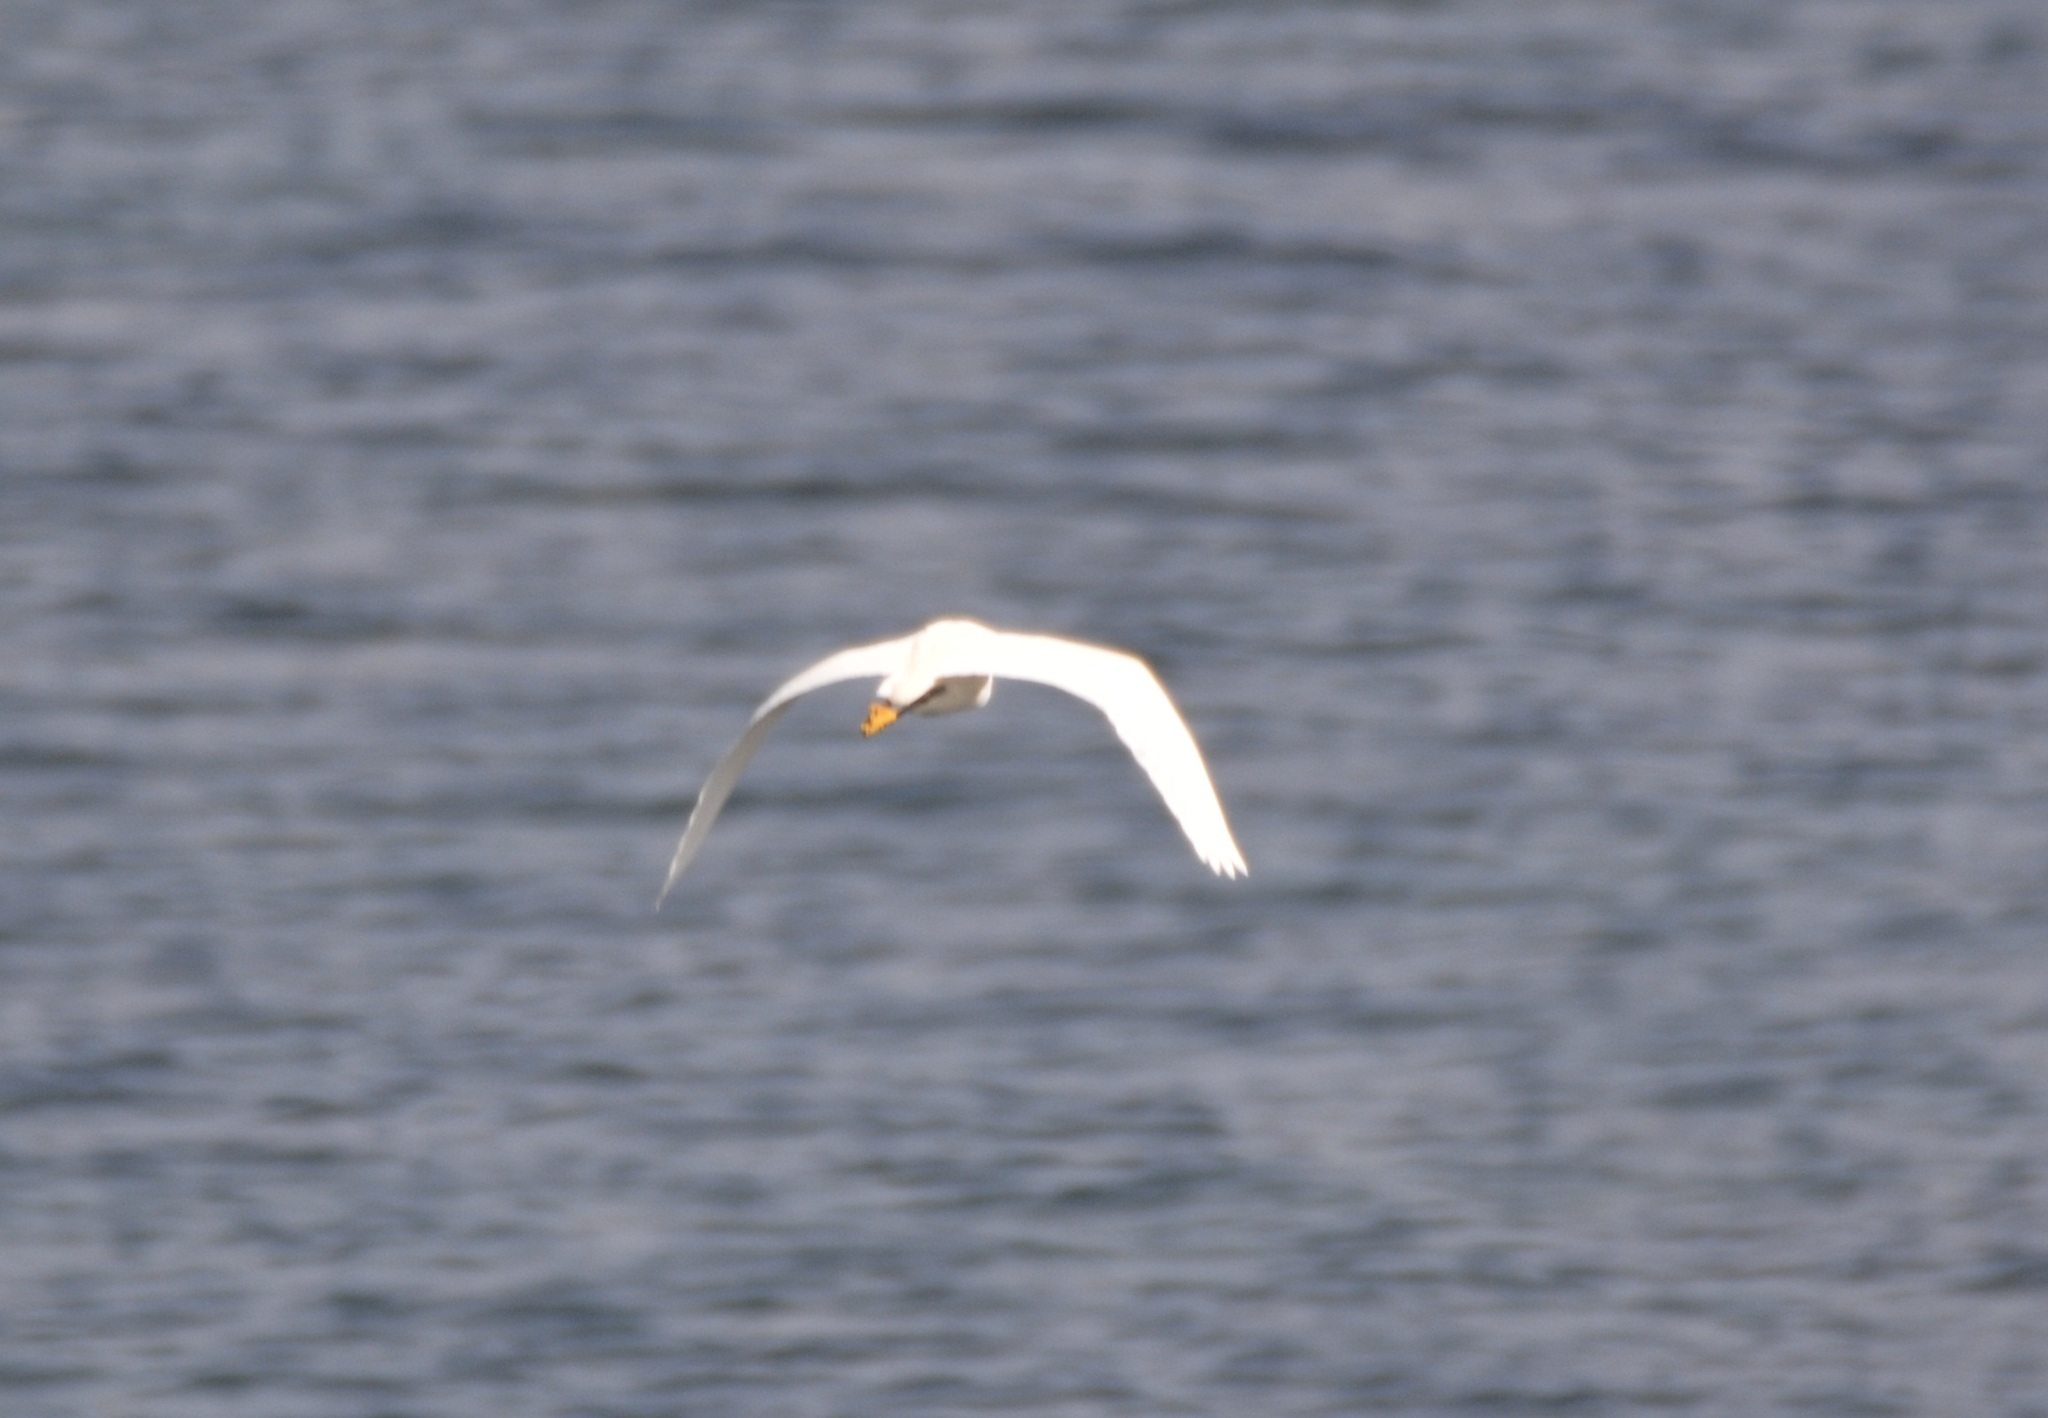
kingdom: Animalia
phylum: Chordata
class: Aves
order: Pelecaniformes
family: Ardeidae
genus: Egretta
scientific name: Egretta garzetta
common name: Little egret
